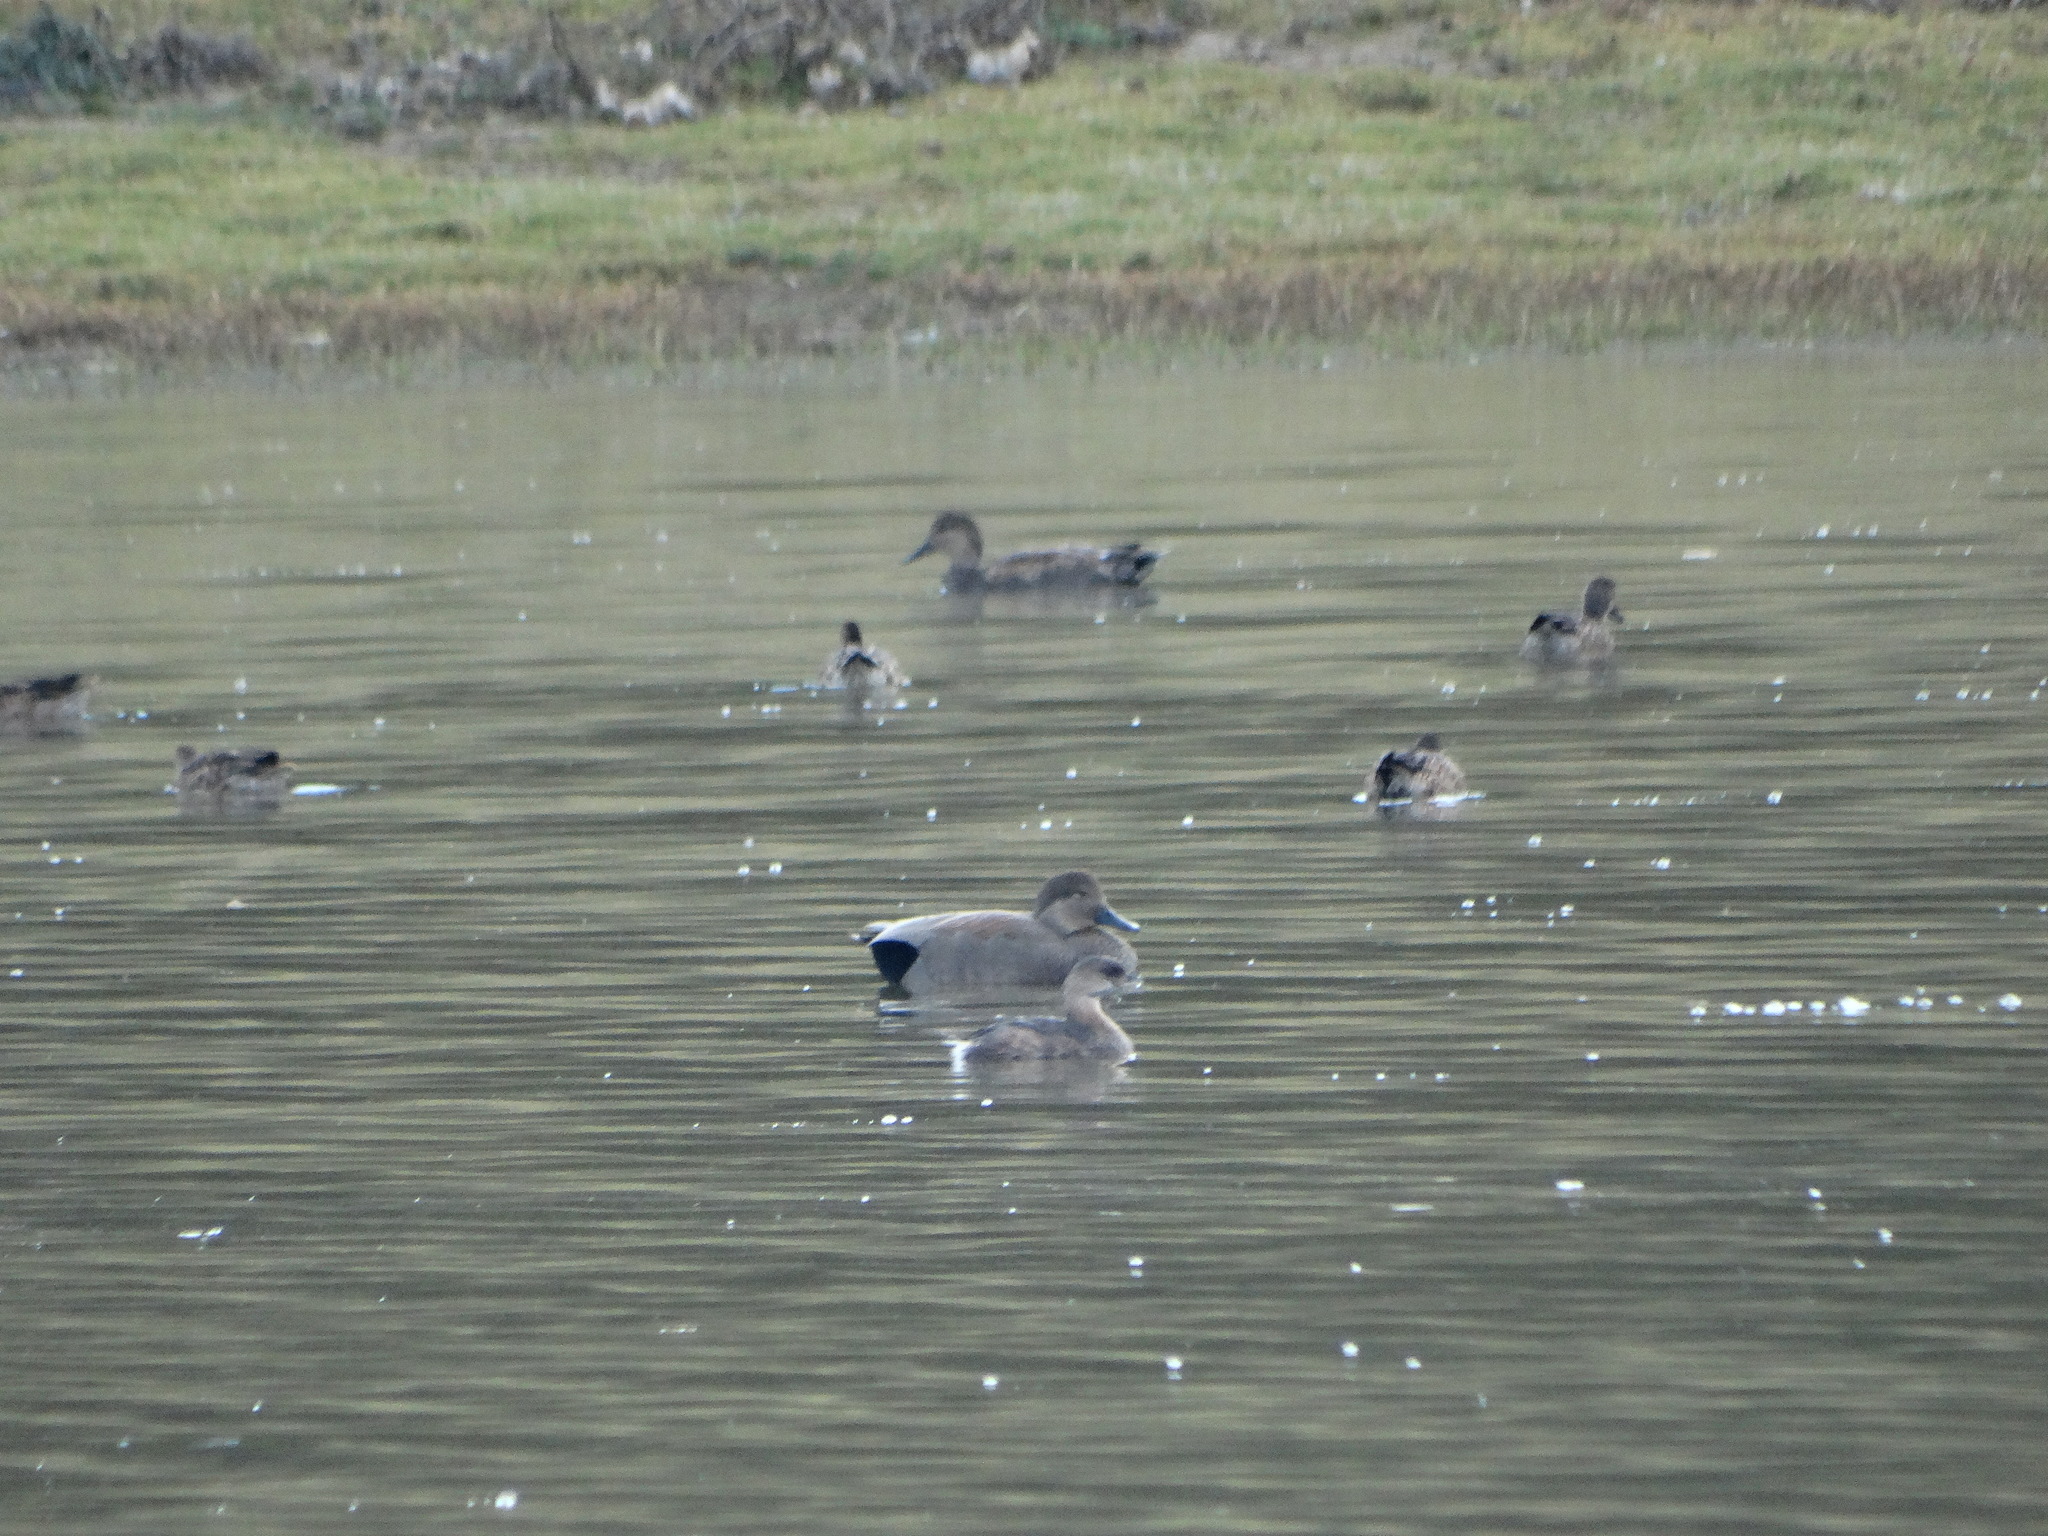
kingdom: Animalia
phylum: Chordata
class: Aves
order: Anseriformes
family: Anatidae
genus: Mareca
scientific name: Mareca strepera
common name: Gadwall
